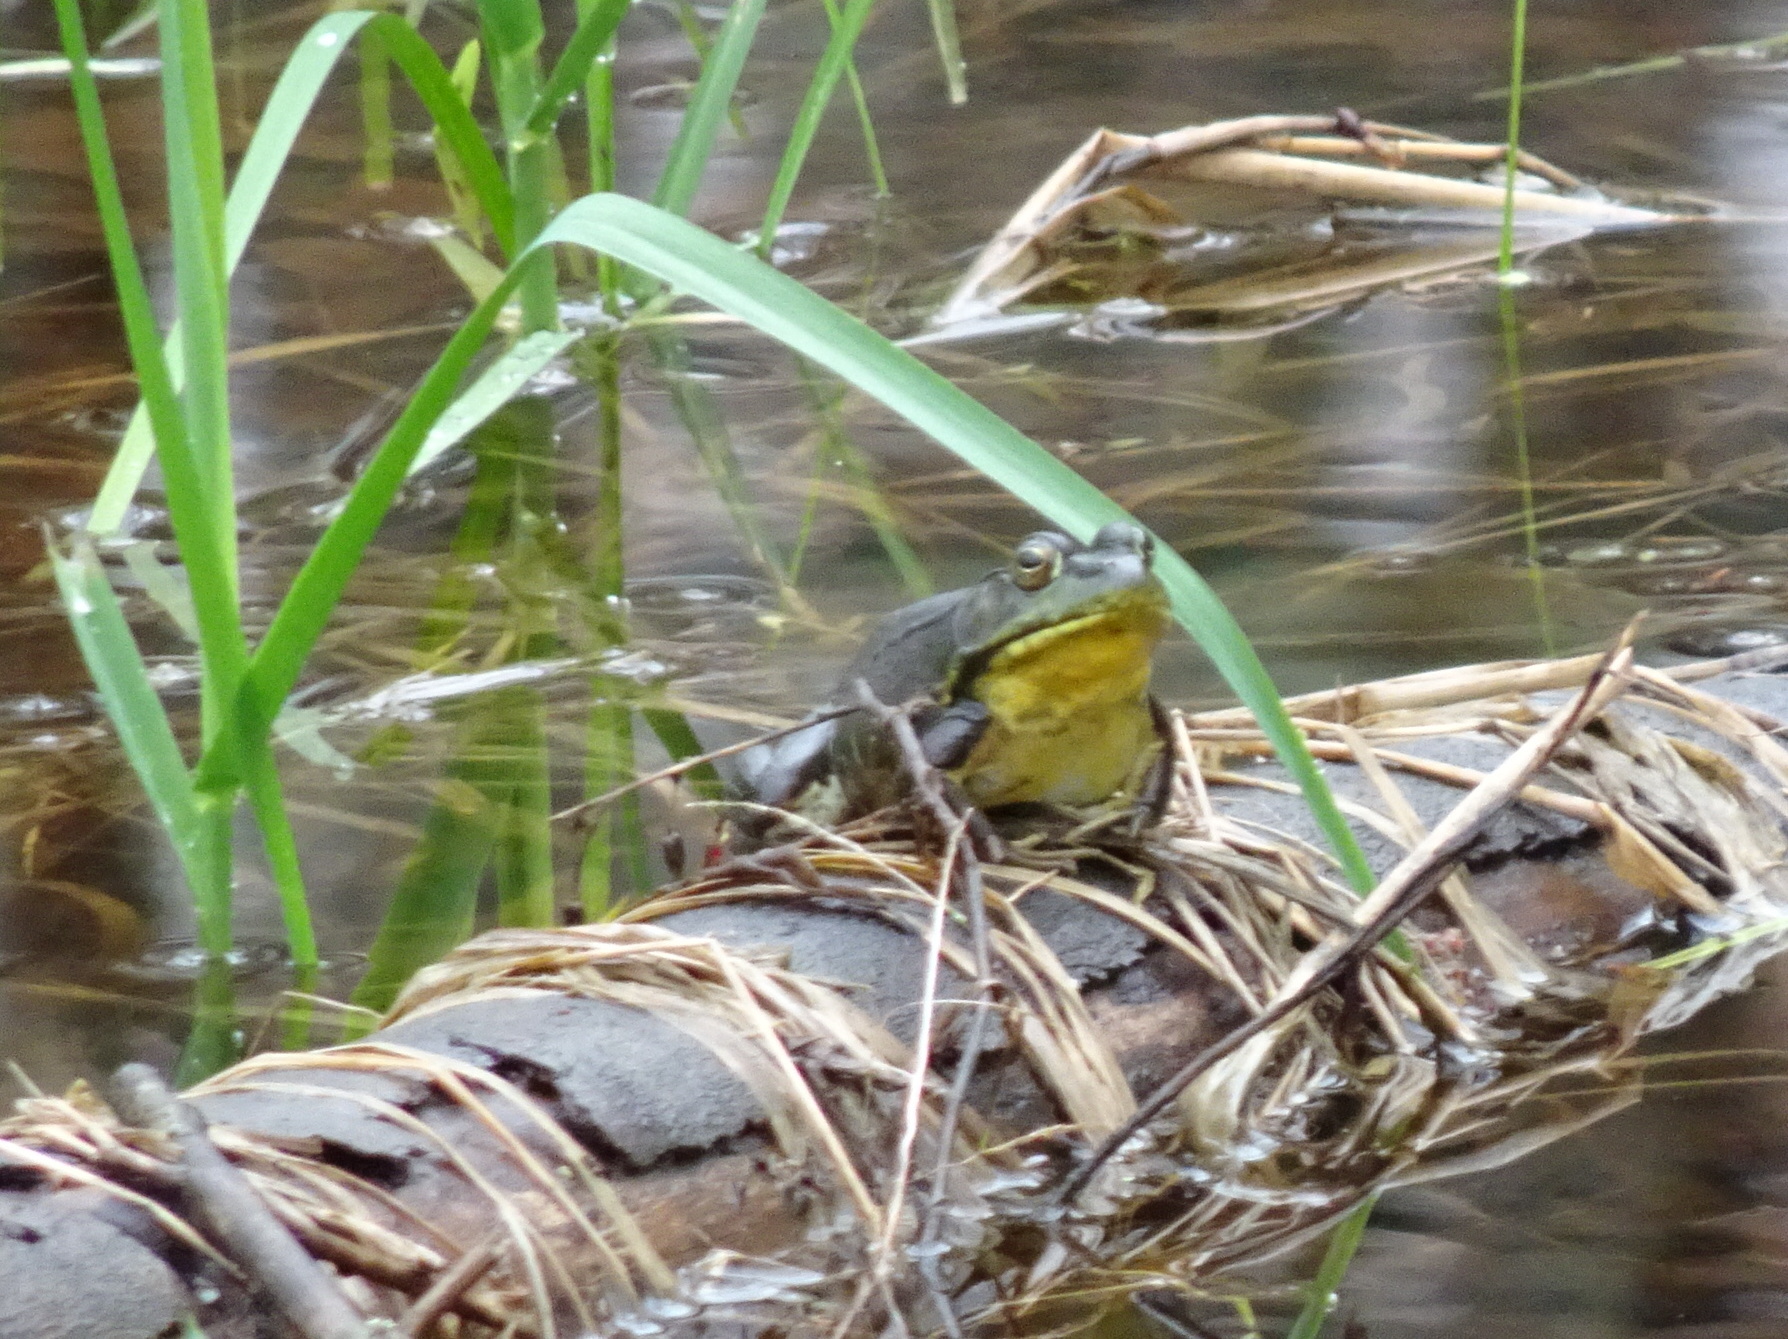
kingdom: Animalia
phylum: Chordata
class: Amphibia
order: Anura
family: Ranidae
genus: Lithobates
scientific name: Lithobates clamitans
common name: Green frog
